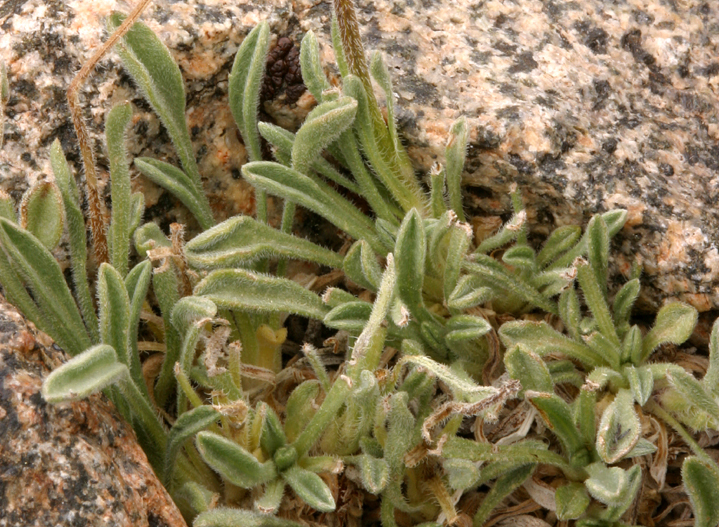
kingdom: Plantae
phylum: Tracheophyta
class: Magnoliopsida
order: Asterales
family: Asteraceae
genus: Erigeron
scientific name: Erigeron pygmaeus
